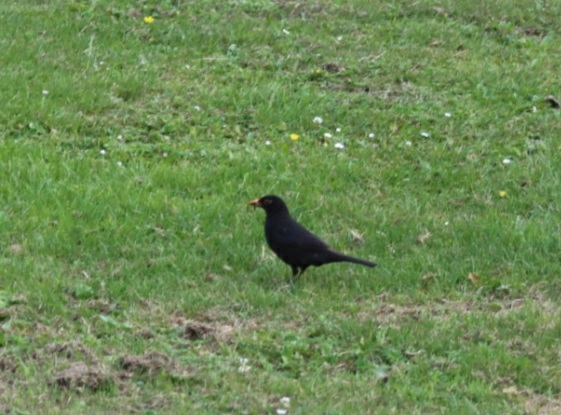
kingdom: Animalia
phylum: Chordata
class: Aves
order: Passeriformes
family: Turdidae
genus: Turdus
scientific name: Turdus merula
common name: Common blackbird
